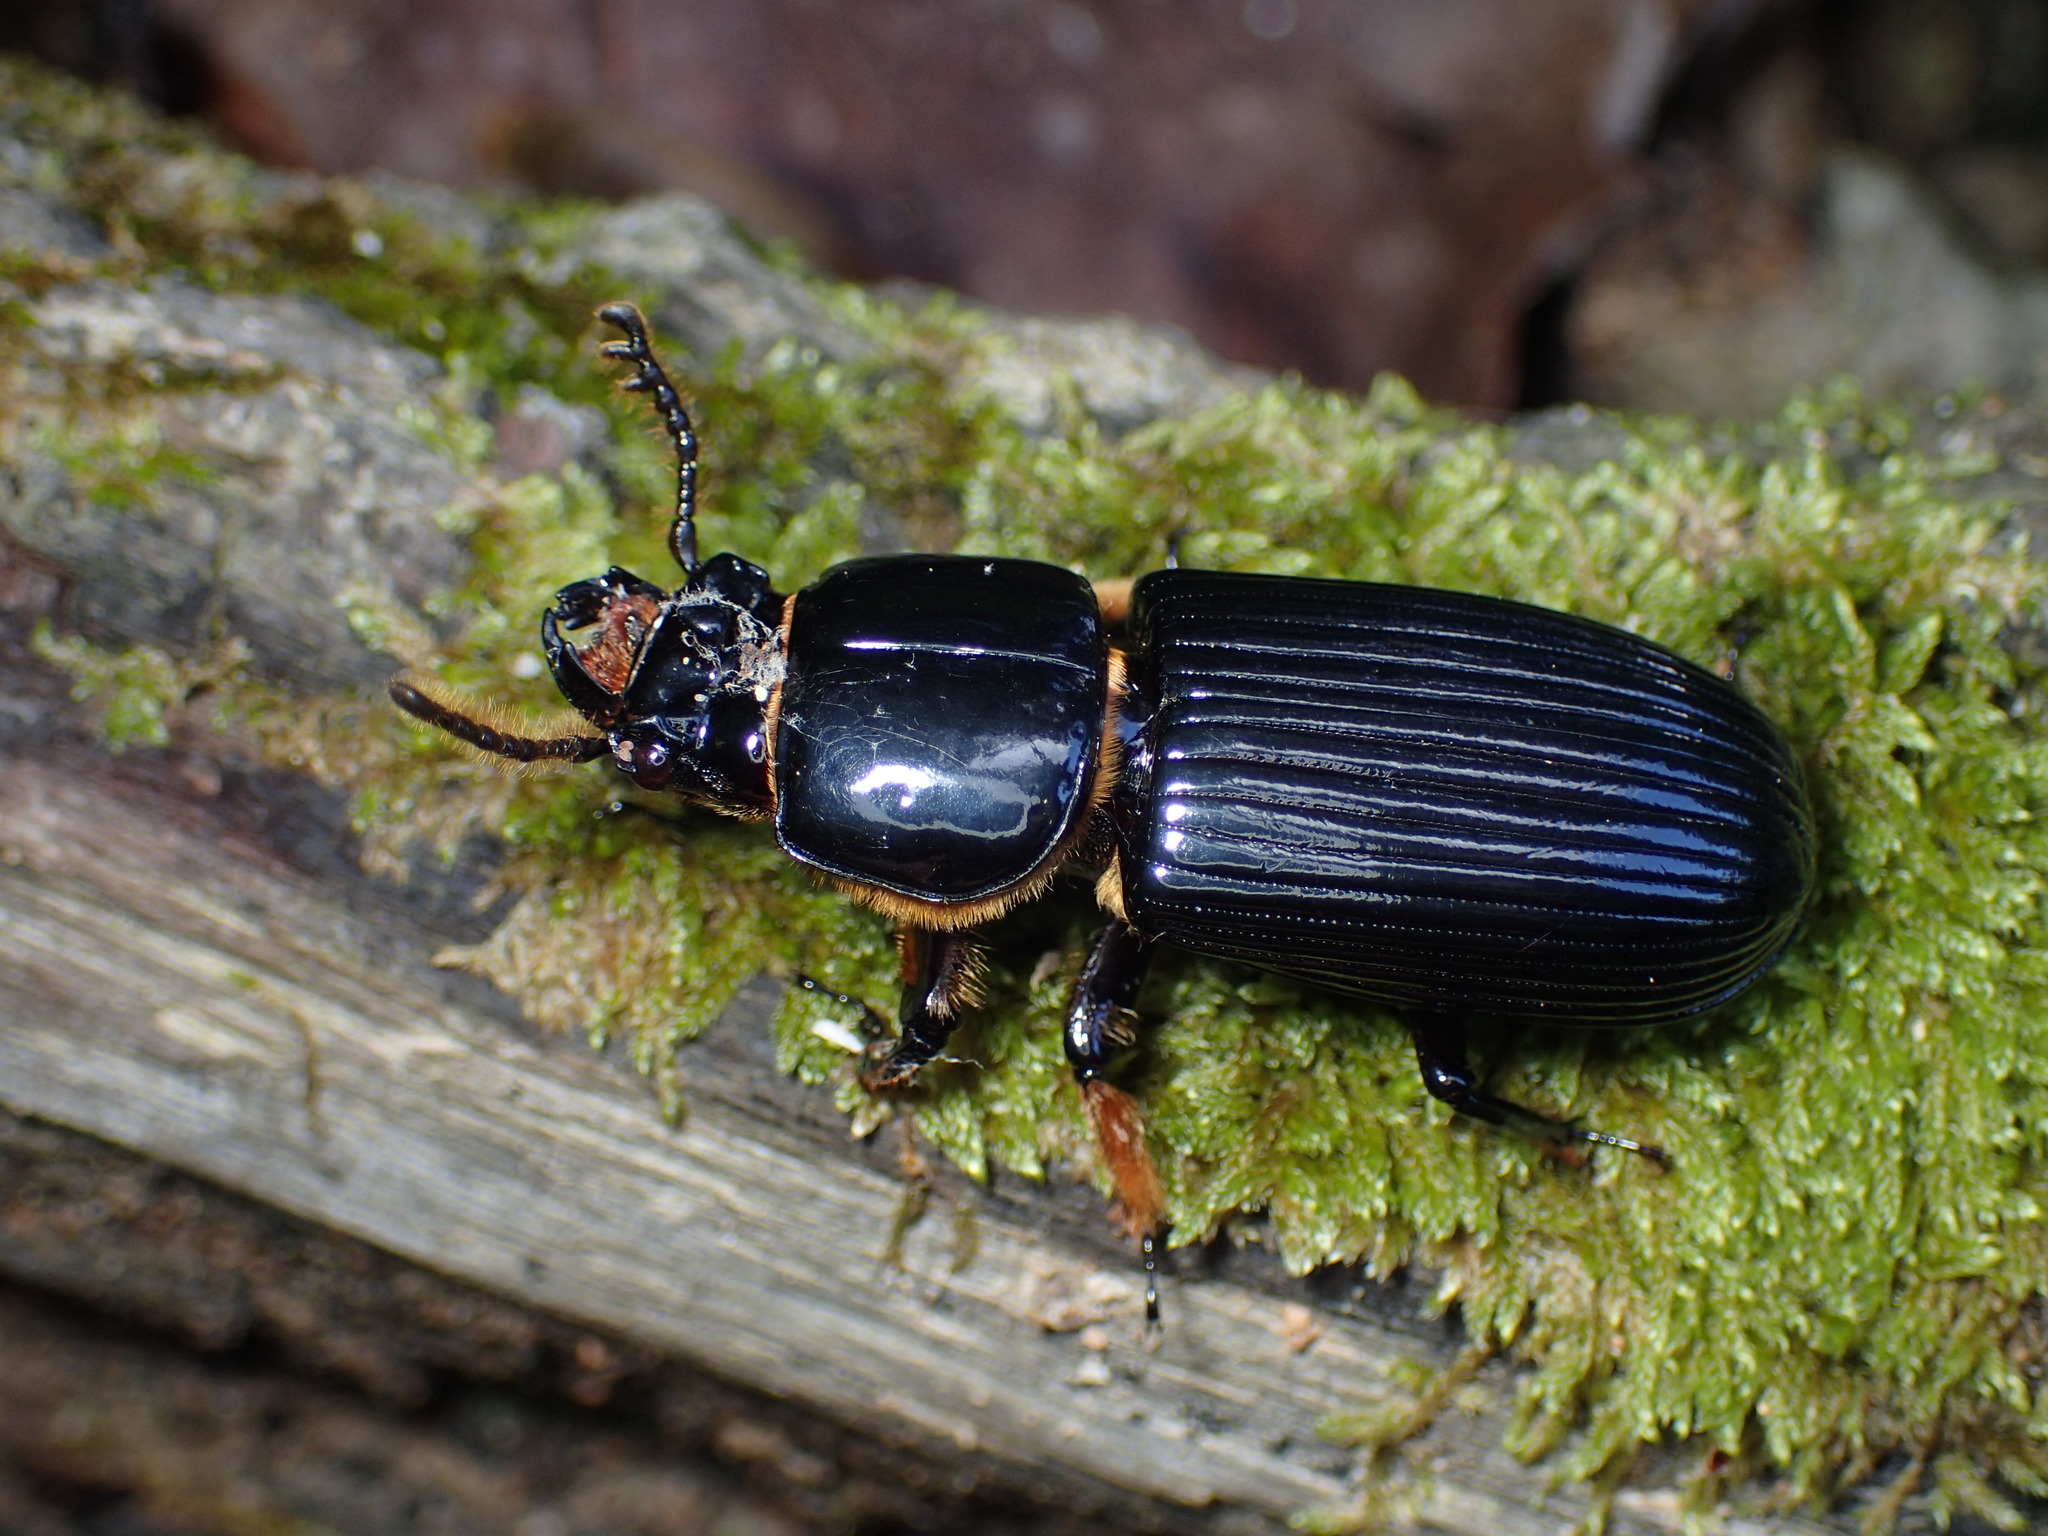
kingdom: Animalia
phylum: Arthropoda
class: Insecta
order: Coleoptera
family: Passalidae
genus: Odontotaenius
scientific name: Odontotaenius disjunctus
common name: Patent leather beetle
